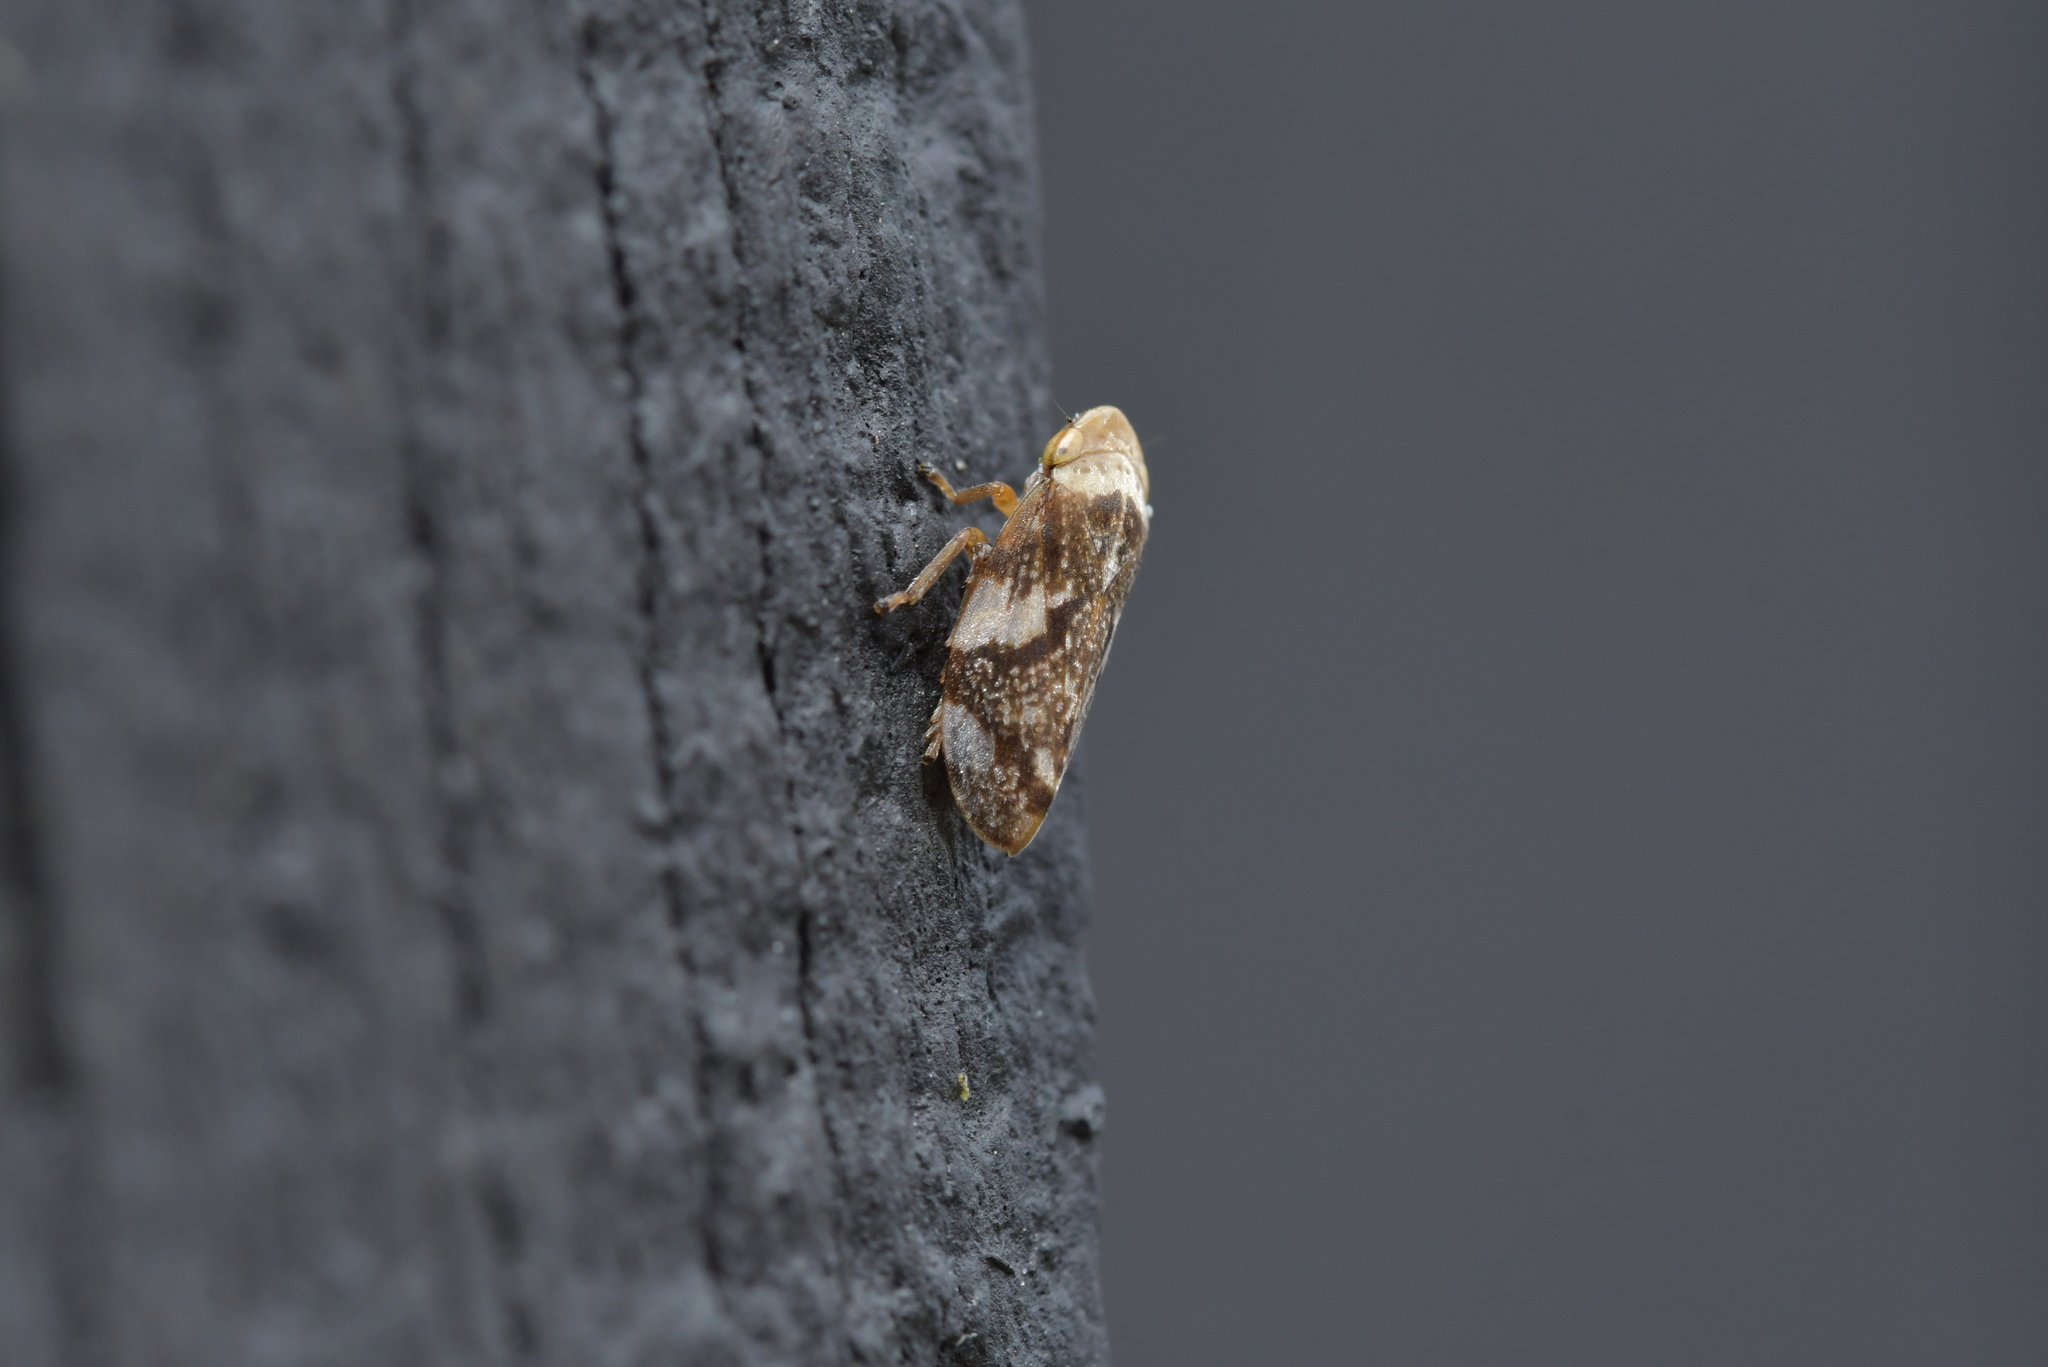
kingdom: Animalia
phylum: Arthropoda
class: Insecta
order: Hemiptera
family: Aphrophoridae
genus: Philaenus
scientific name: Philaenus spumarius
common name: Meadow spittlebug
